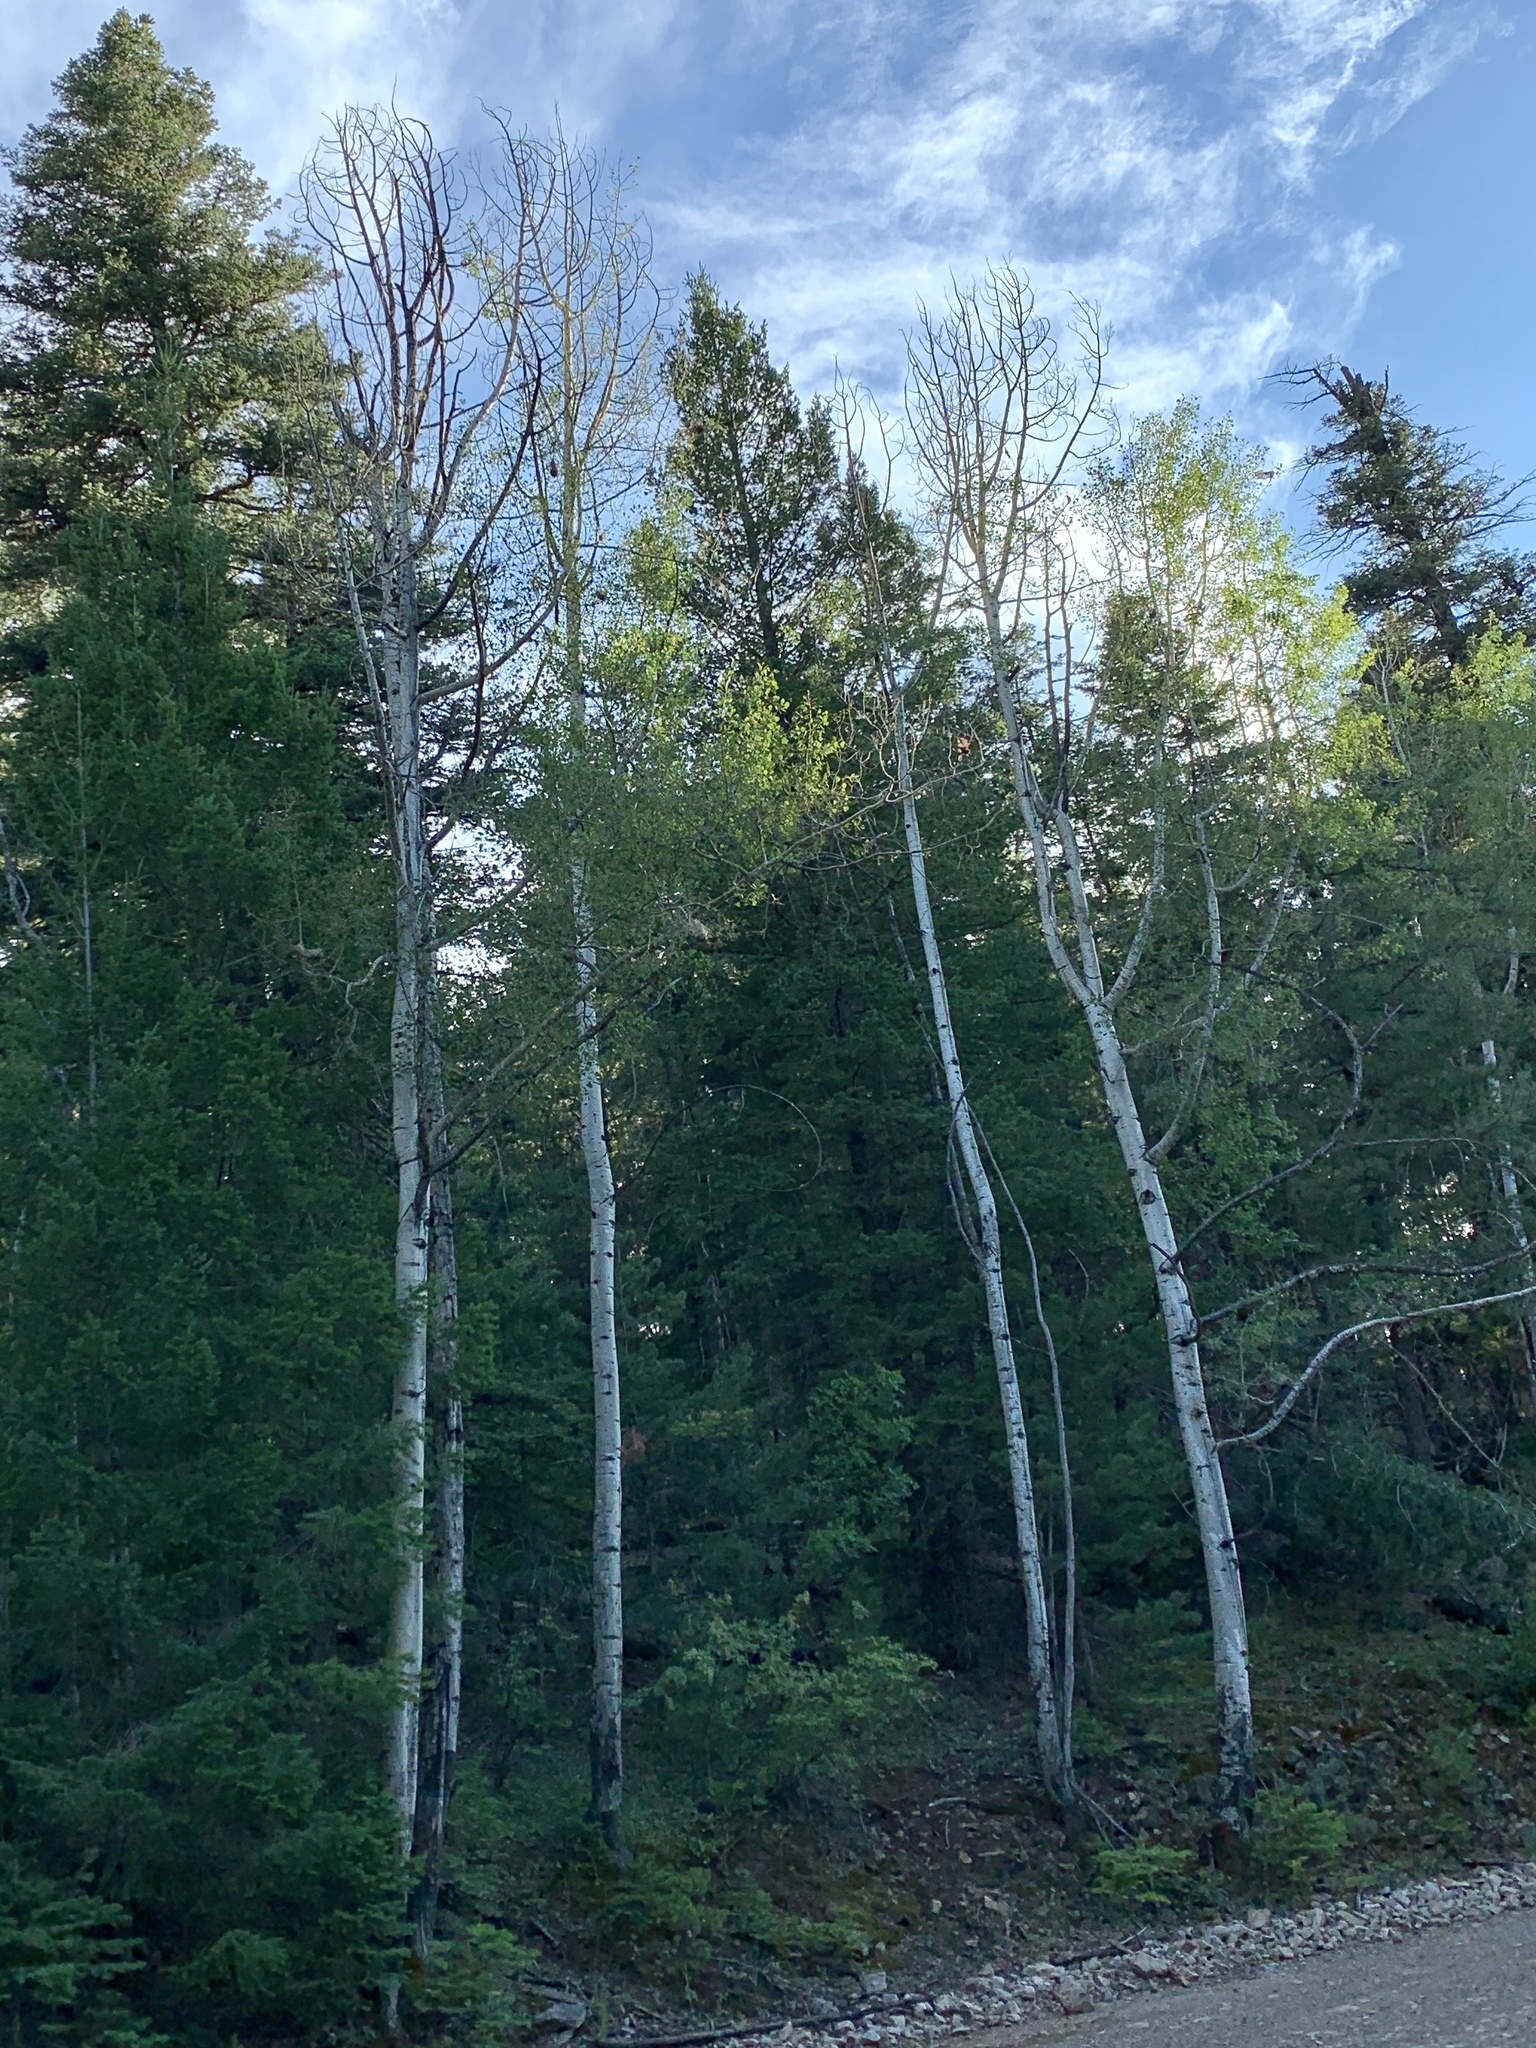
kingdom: Plantae
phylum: Tracheophyta
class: Magnoliopsida
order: Malpighiales
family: Salicaceae
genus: Populus
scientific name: Populus tremuloides
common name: Quaking aspen
